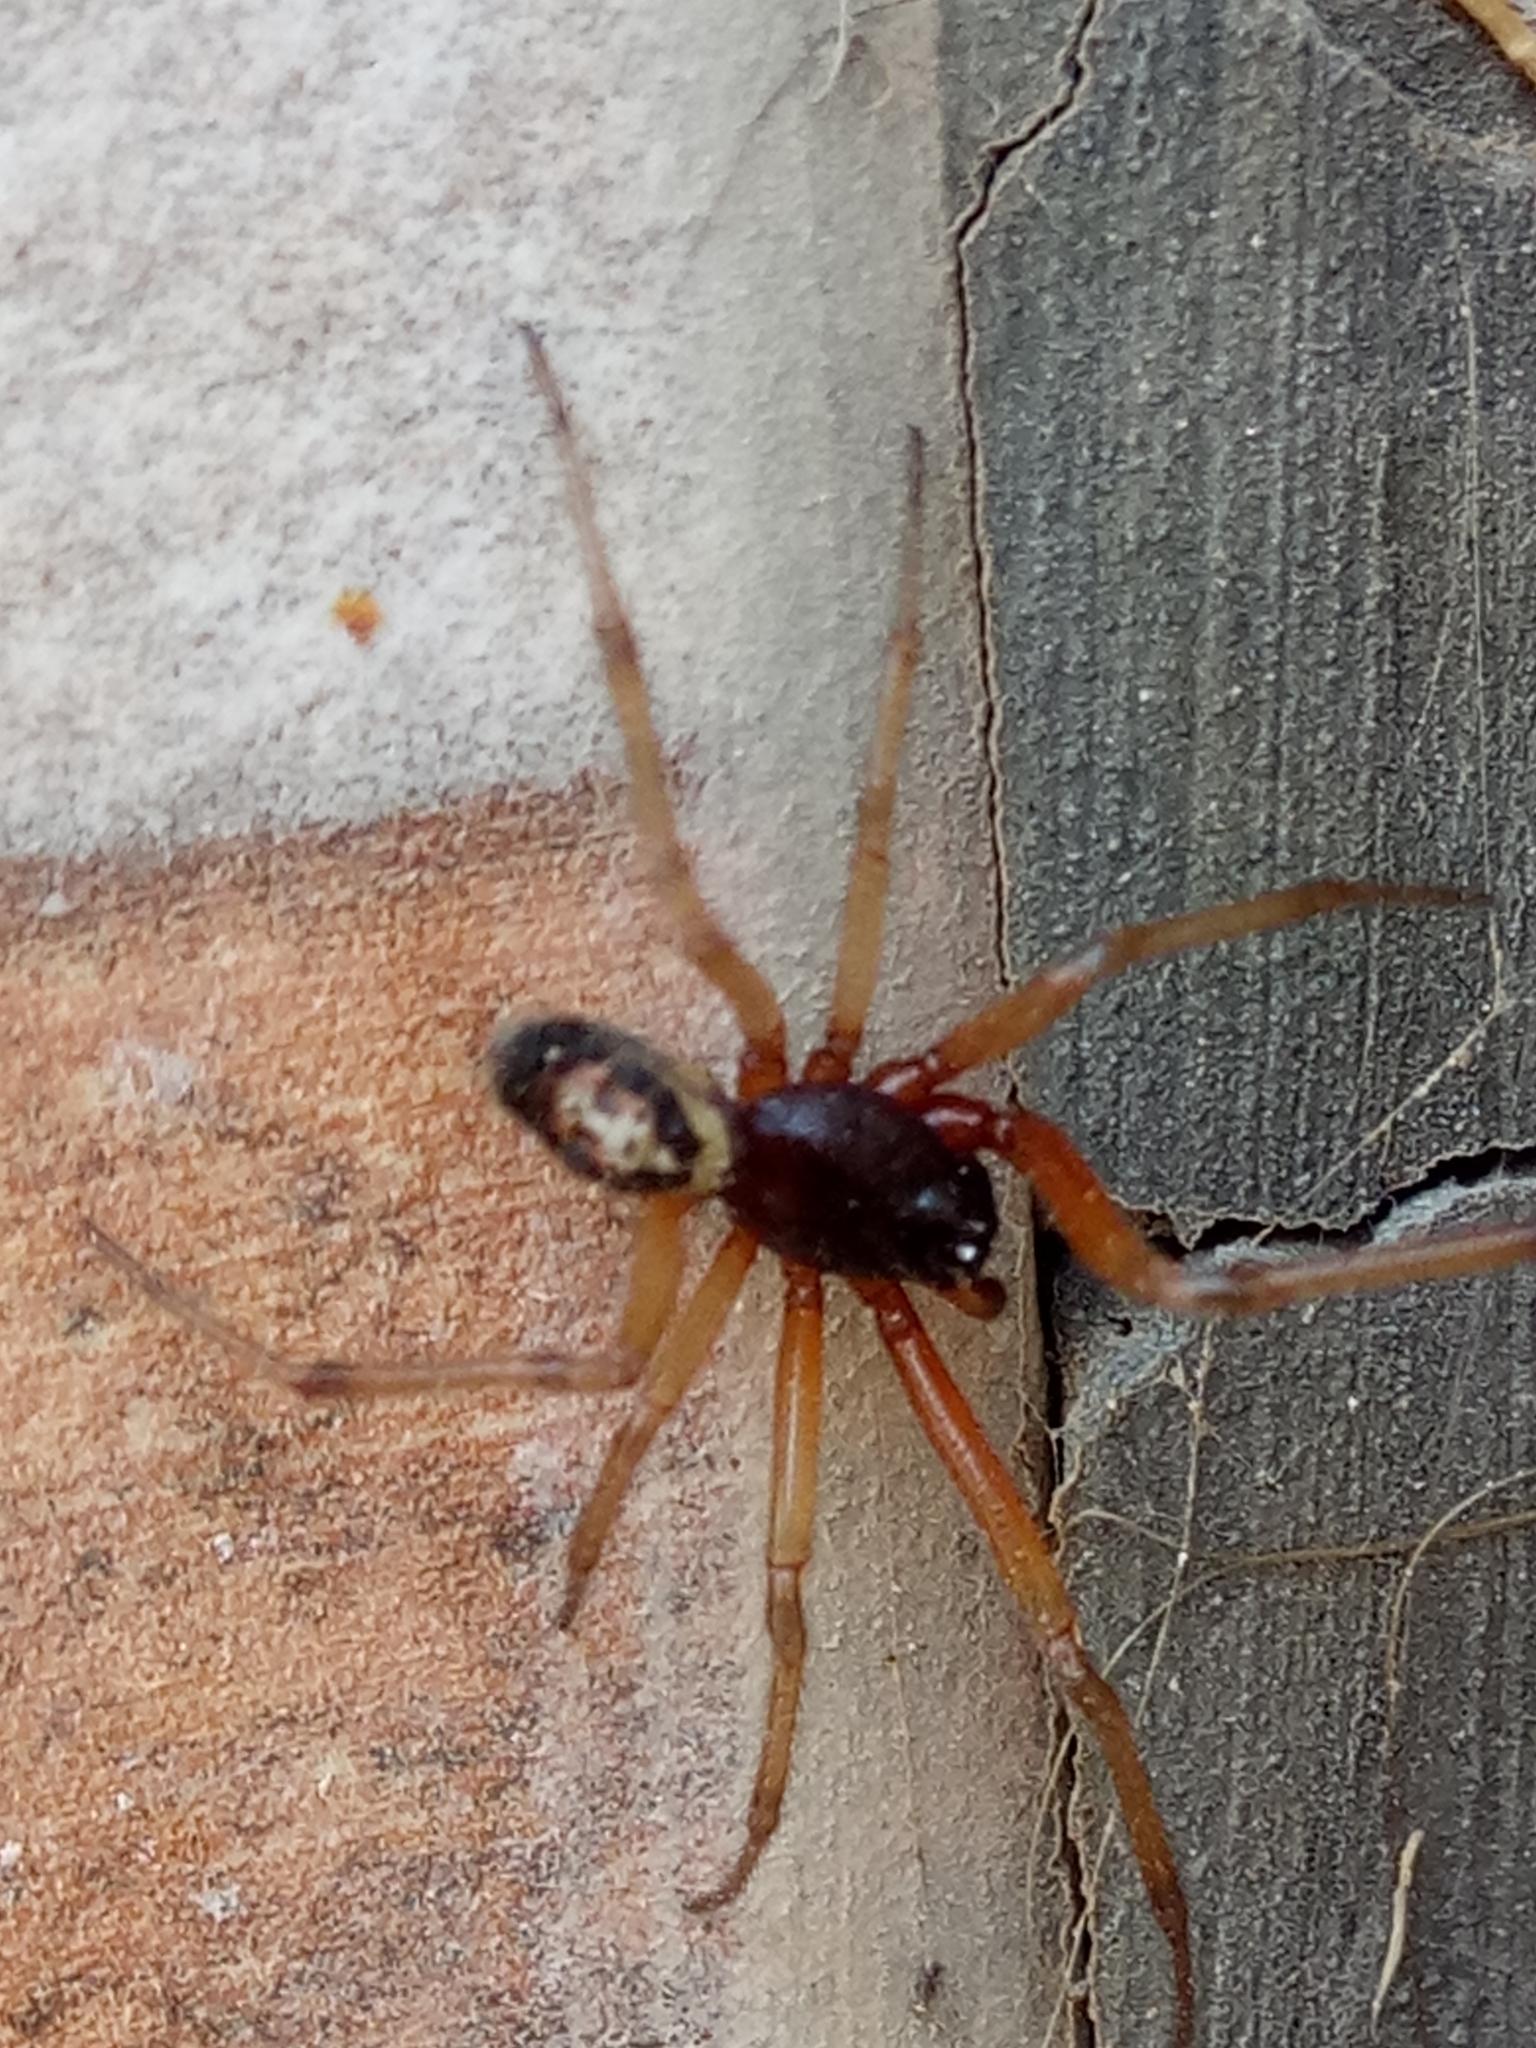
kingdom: Animalia
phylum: Arthropoda
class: Arachnida
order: Araneae
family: Theridiidae
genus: Steatoda
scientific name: Steatoda nobilis
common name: Cobweb weaver
